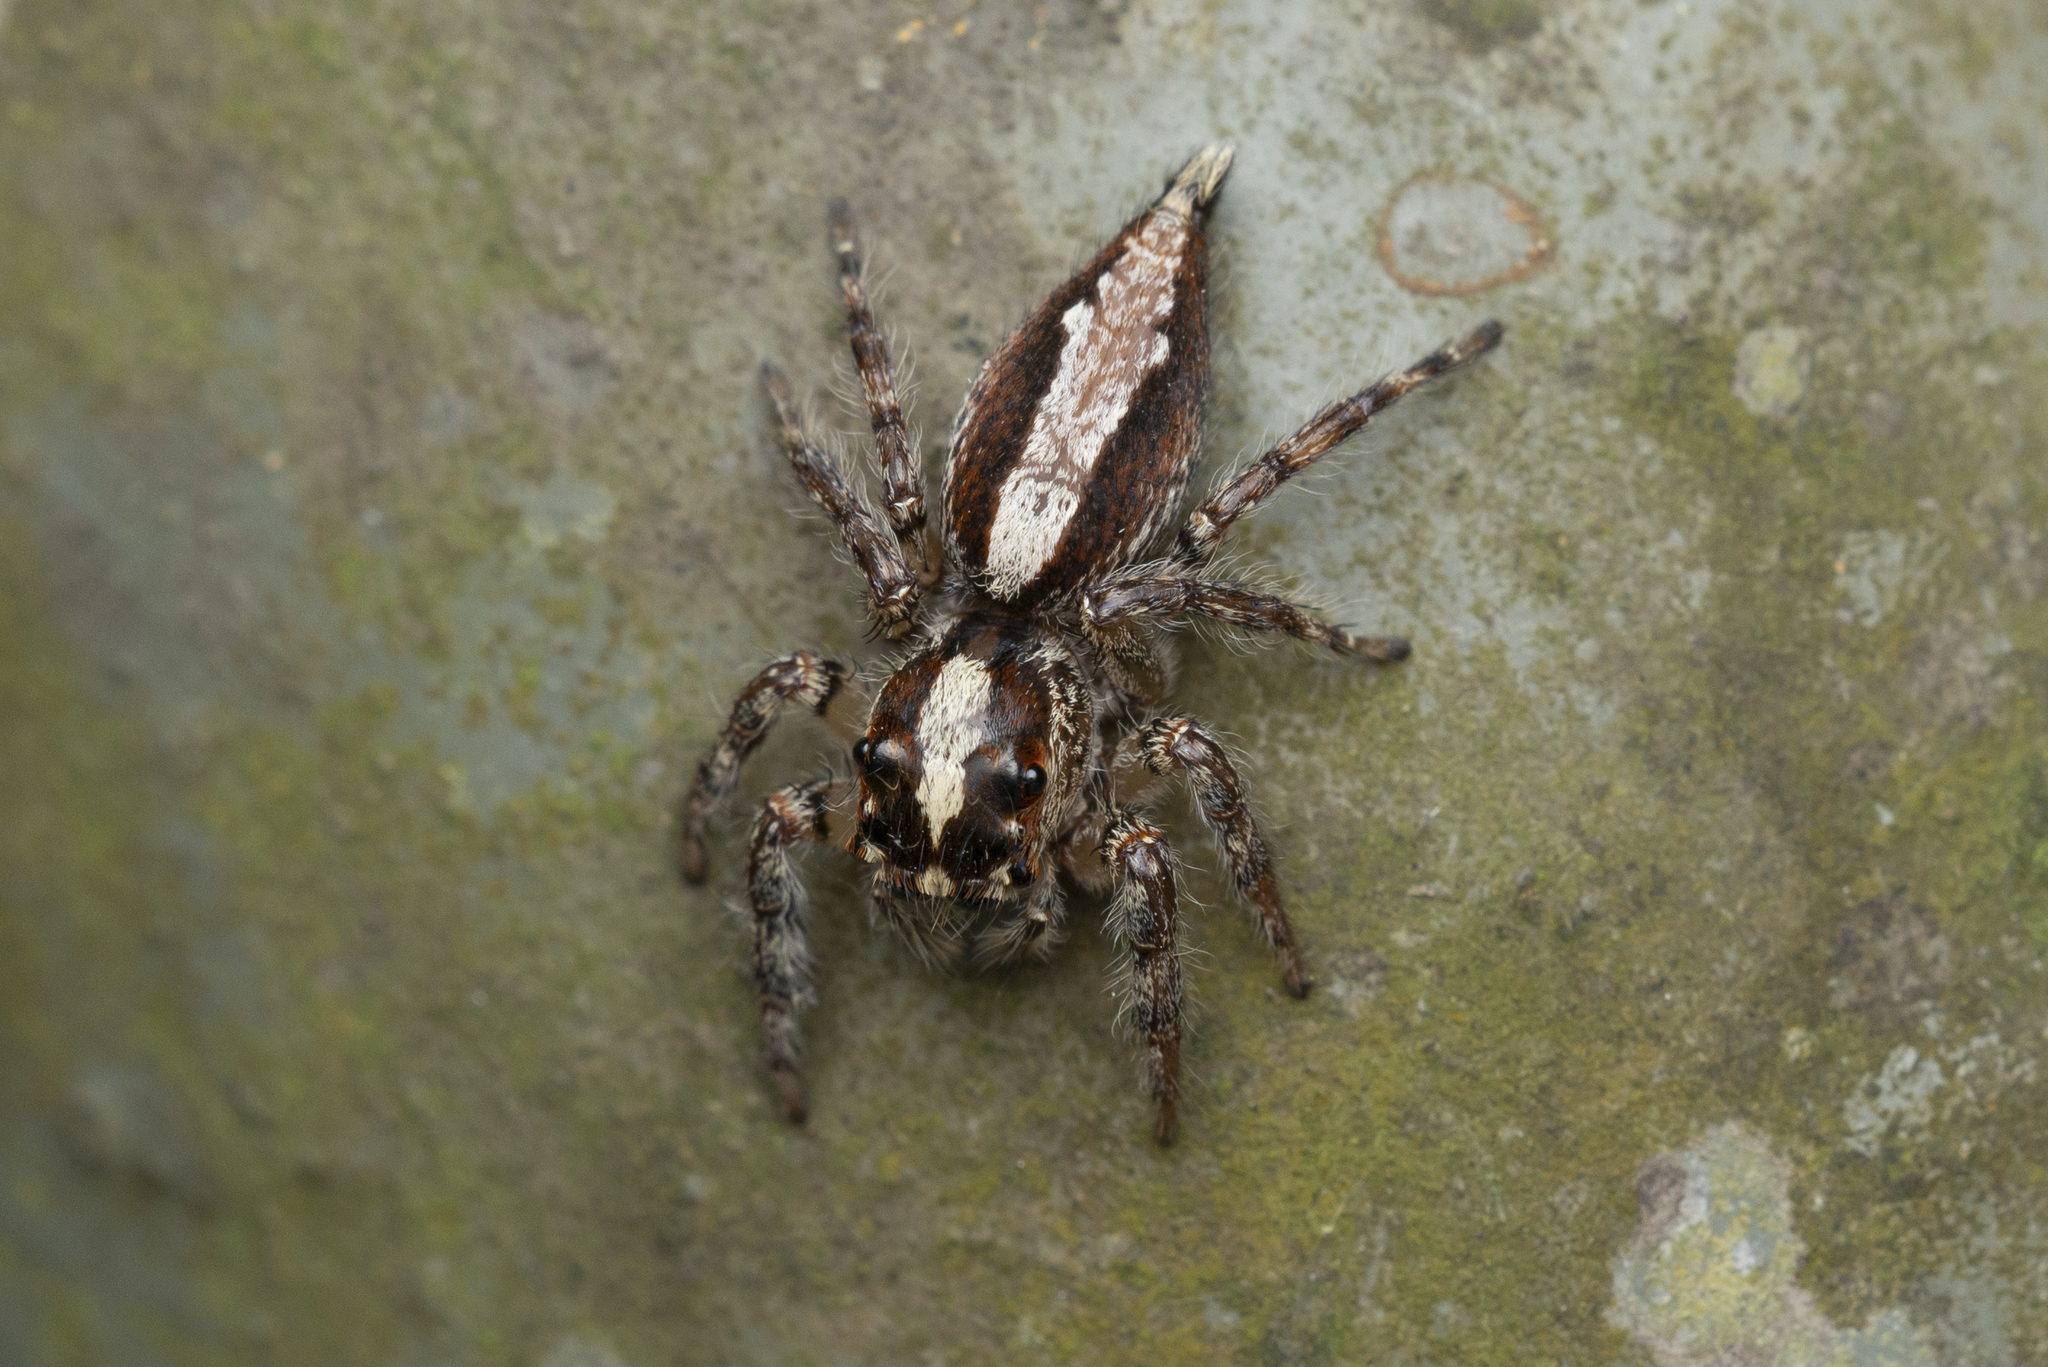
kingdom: Animalia
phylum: Arthropoda
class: Arachnida
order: Araneae
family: Salticidae
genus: Pancorius
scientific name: Pancorius crassipes
